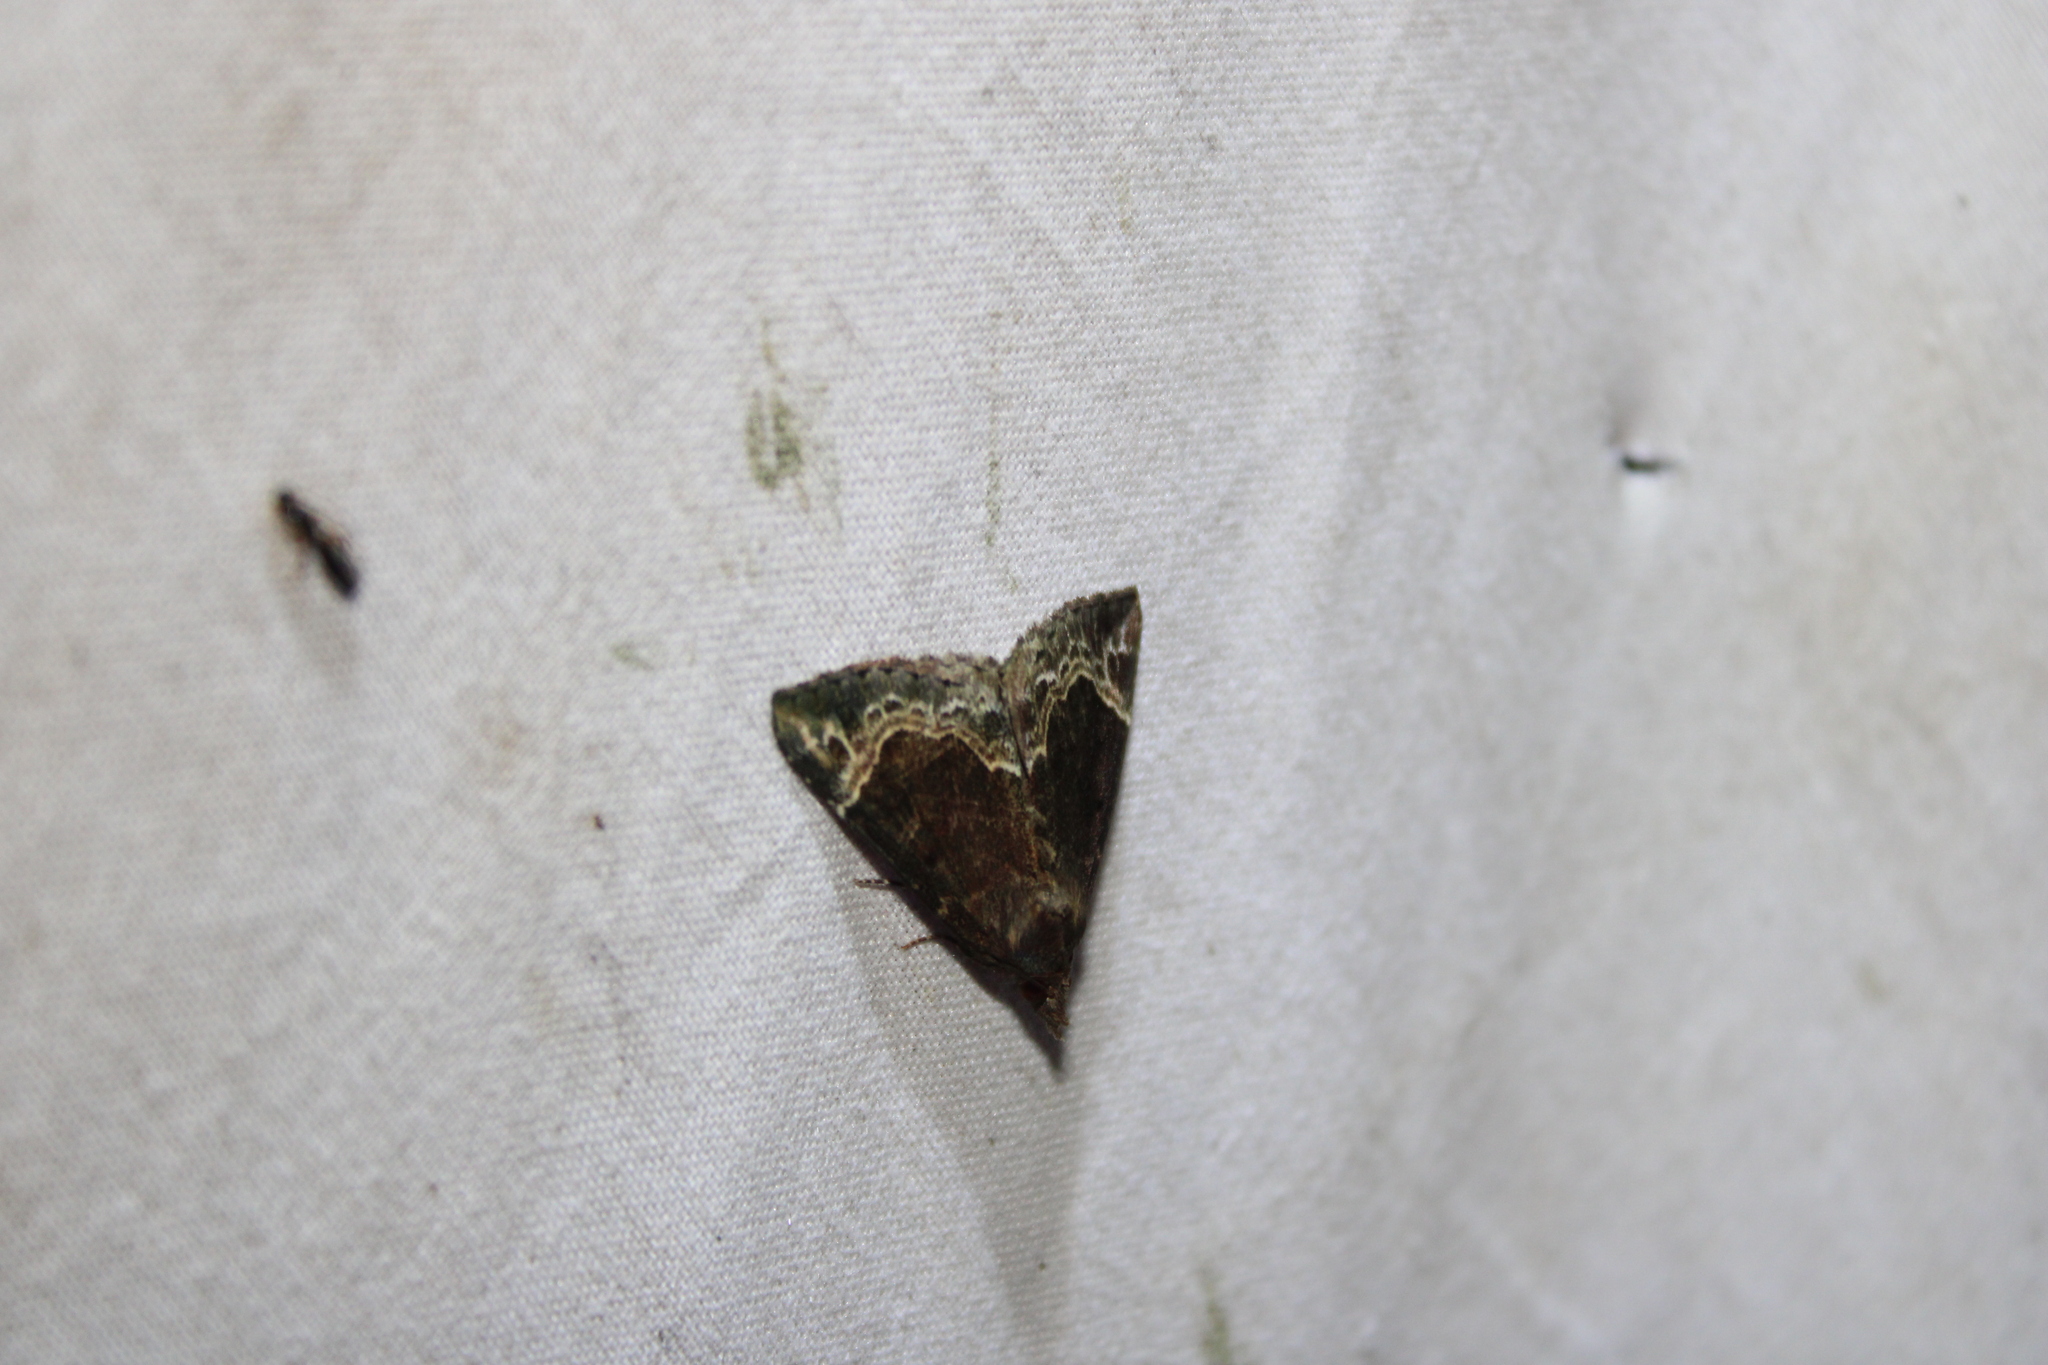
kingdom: Animalia
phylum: Arthropoda
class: Insecta
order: Lepidoptera
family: Erebidae
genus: Hypena
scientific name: Hypena abalienalis
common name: White-lined snout
